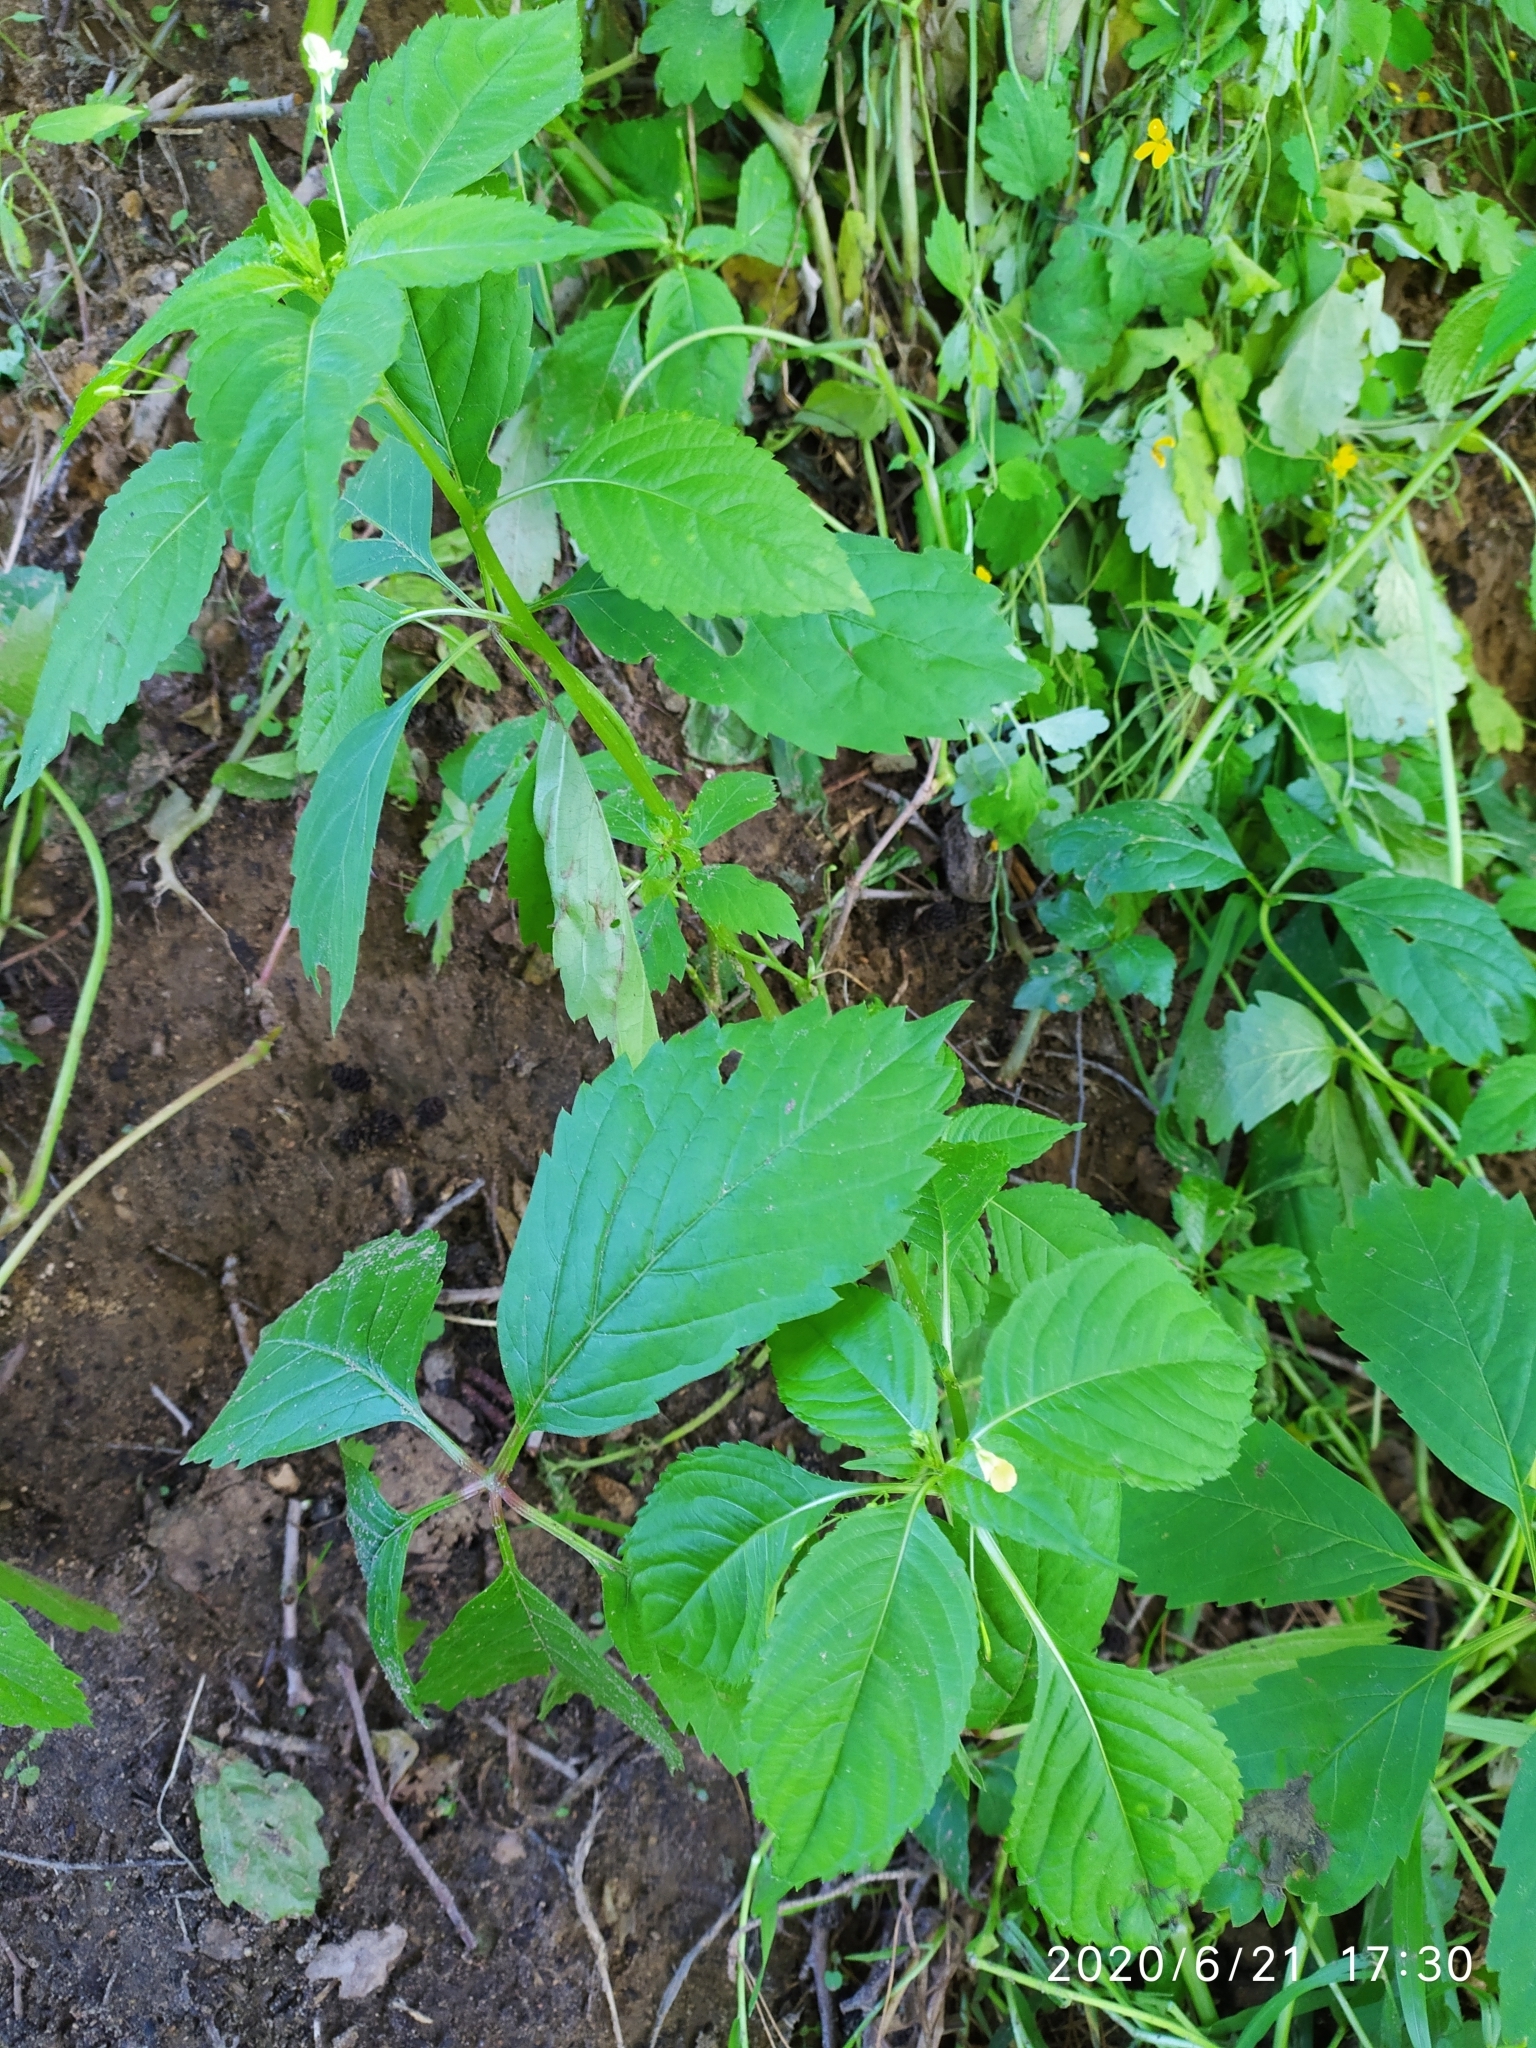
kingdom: Plantae
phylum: Tracheophyta
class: Magnoliopsida
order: Ericales
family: Balsaminaceae
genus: Impatiens
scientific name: Impatiens parviflora
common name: Small balsam
